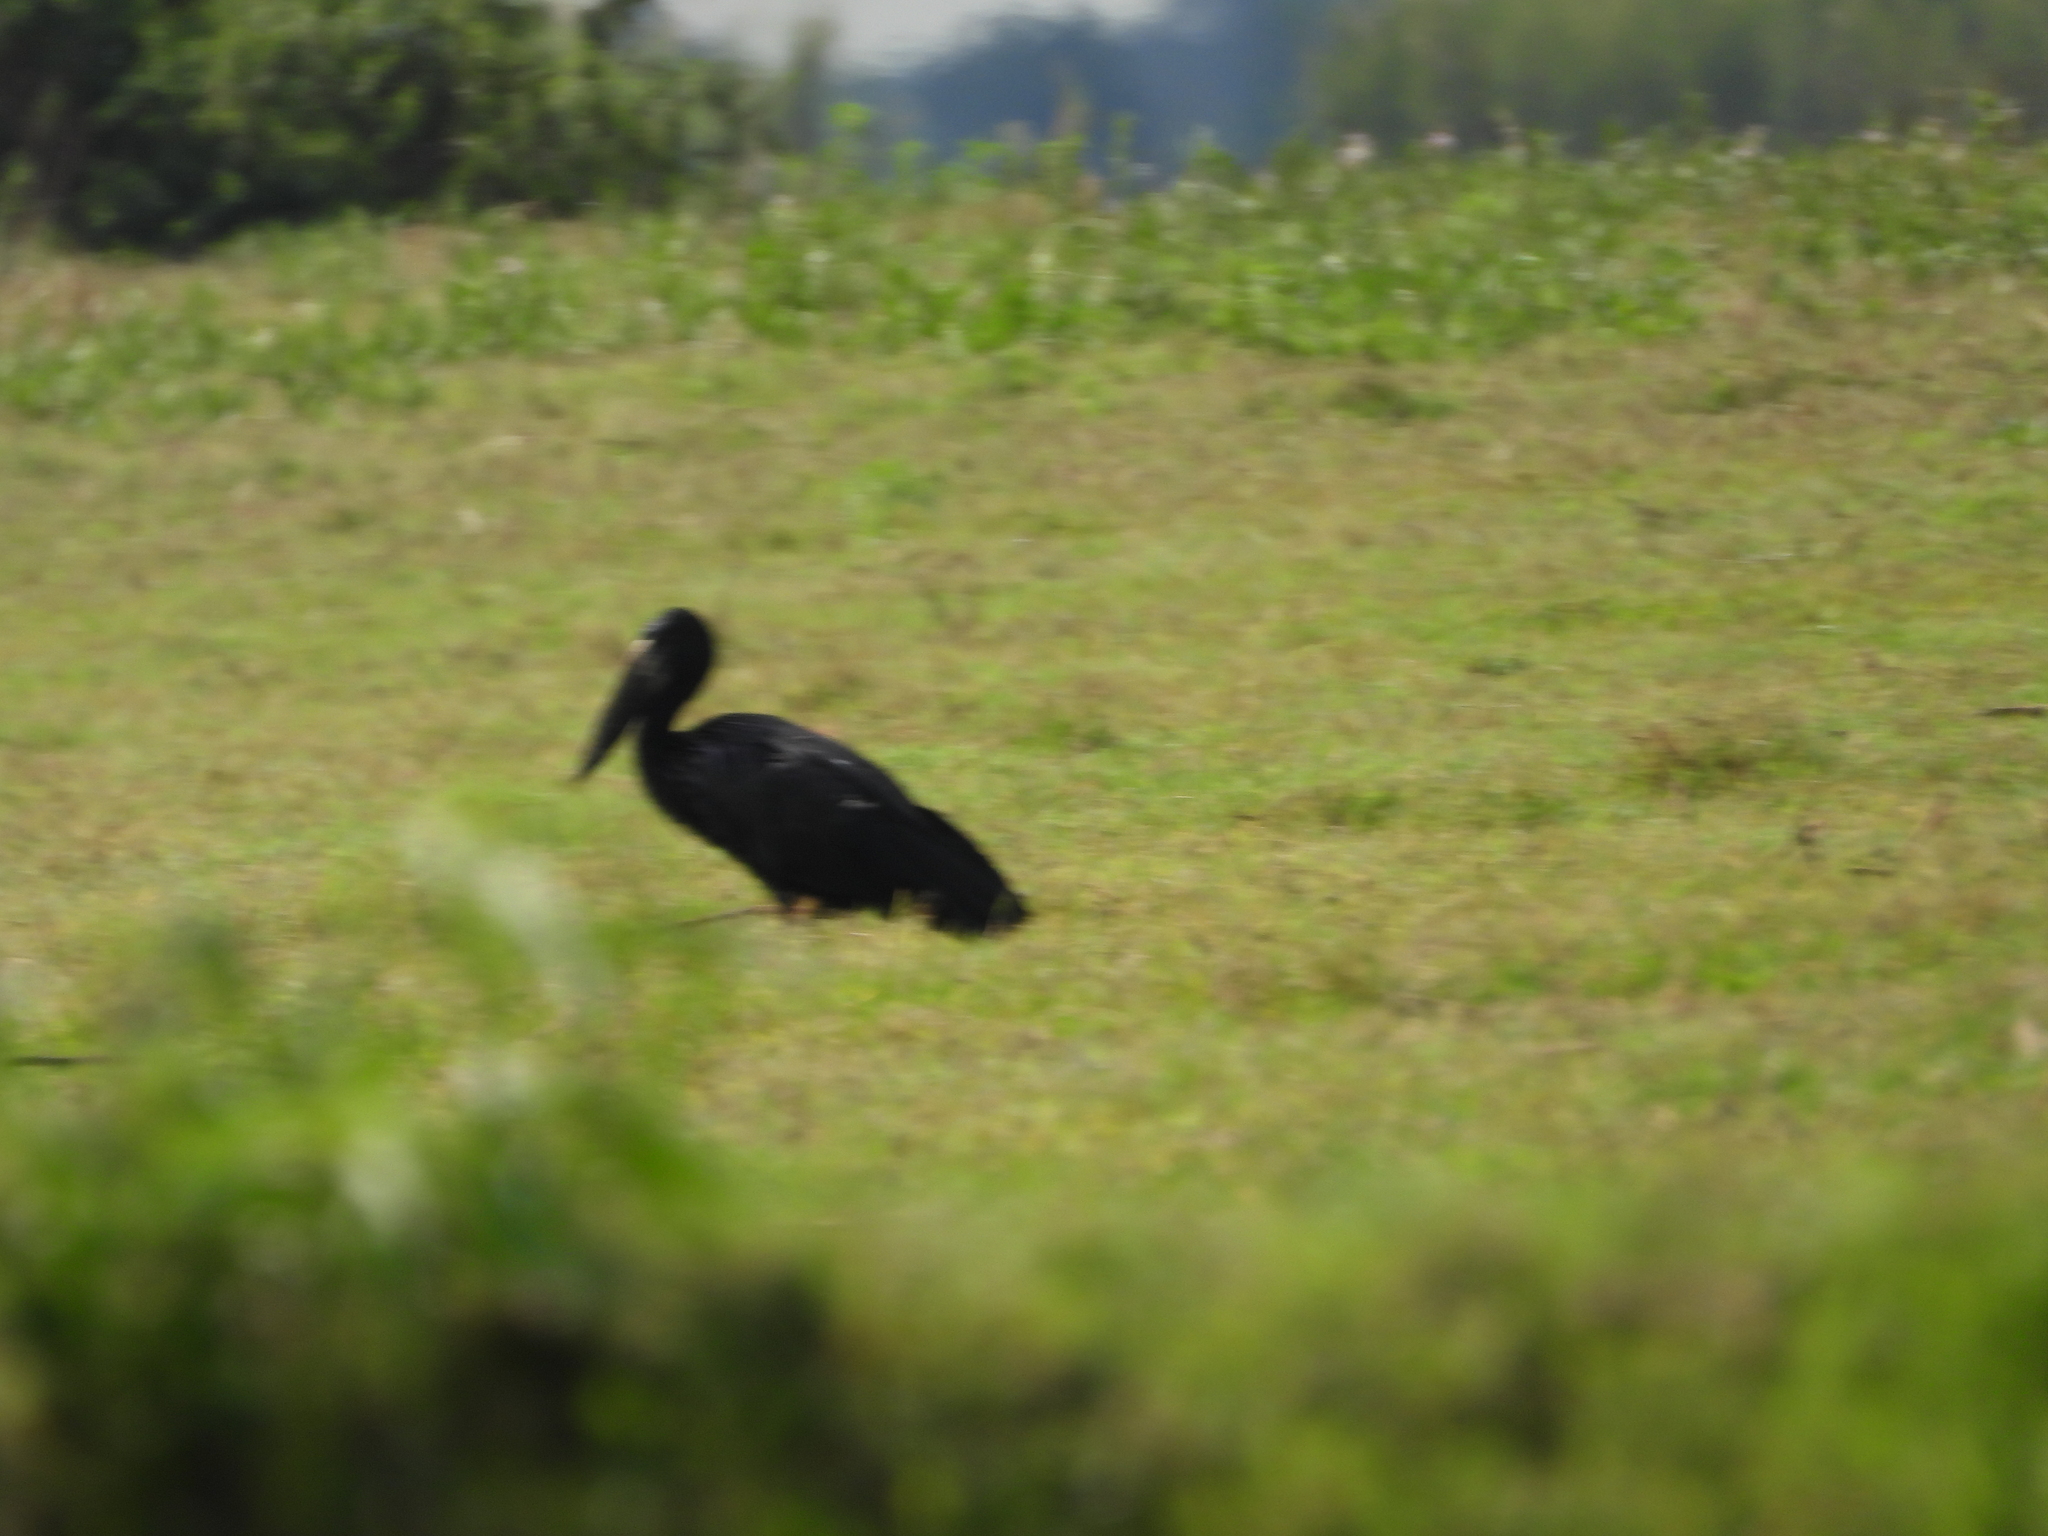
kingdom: Animalia
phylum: Chordata
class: Aves
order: Ciconiiformes
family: Ciconiidae
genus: Anastomus
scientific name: Anastomus lamelligerus
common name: African openbill
